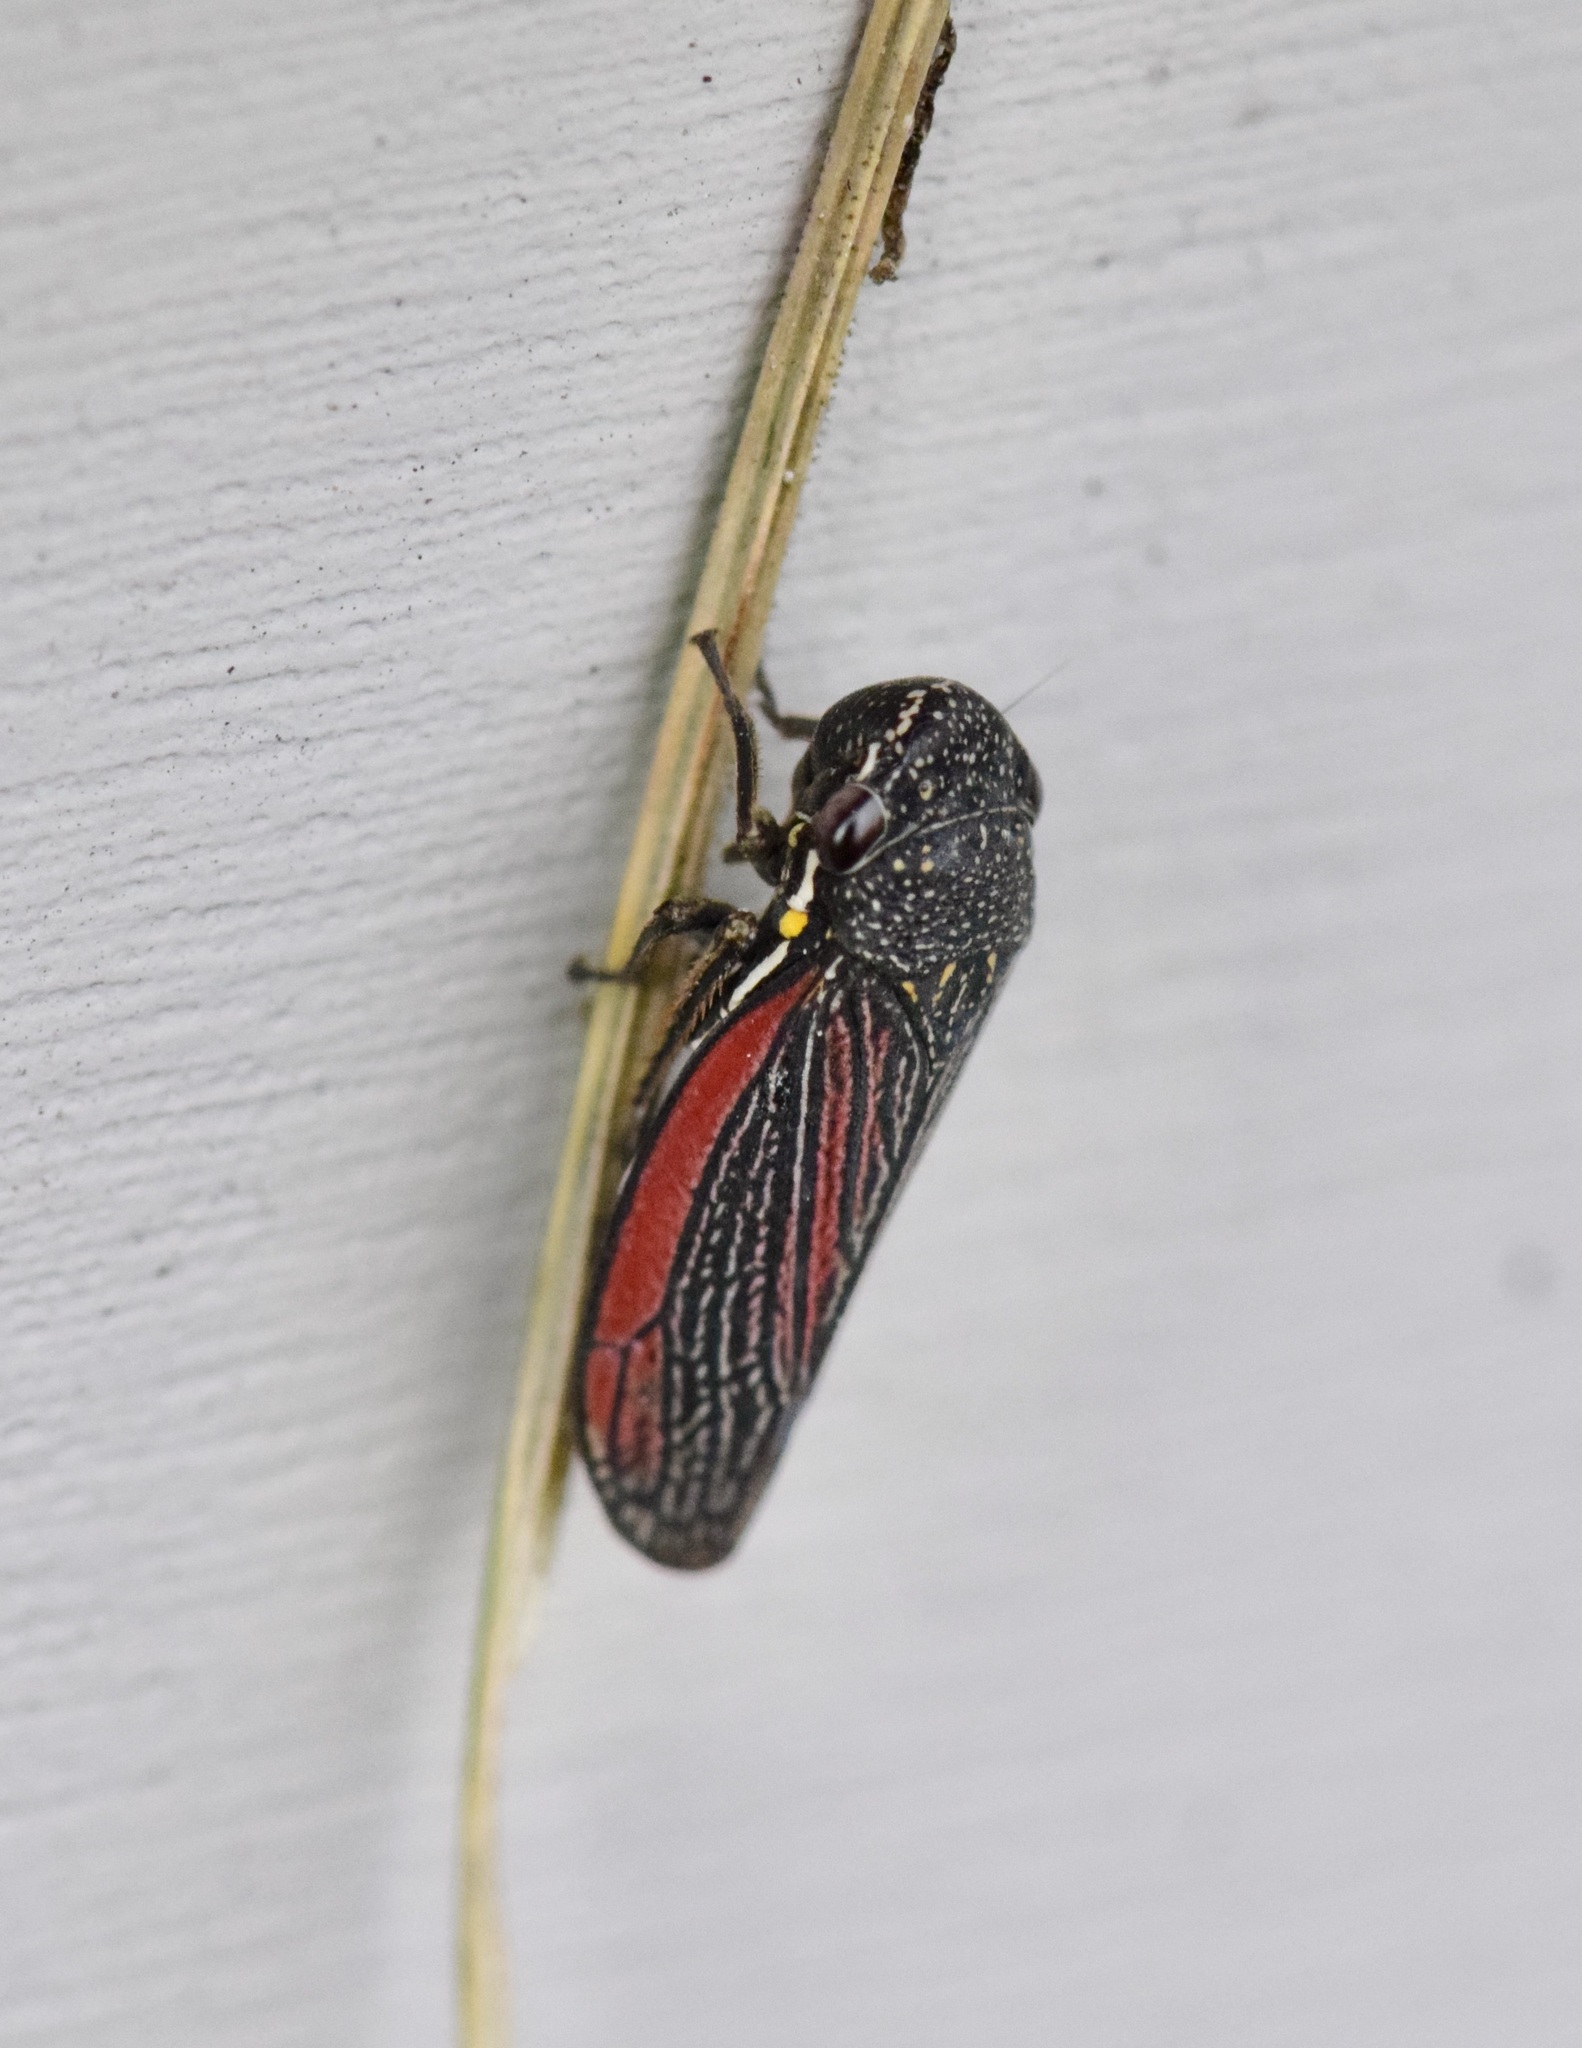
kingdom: Animalia
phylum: Arthropoda
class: Insecta
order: Hemiptera
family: Cicadellidae
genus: Cuerna
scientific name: Cuerna striata
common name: Striped leafhopper
